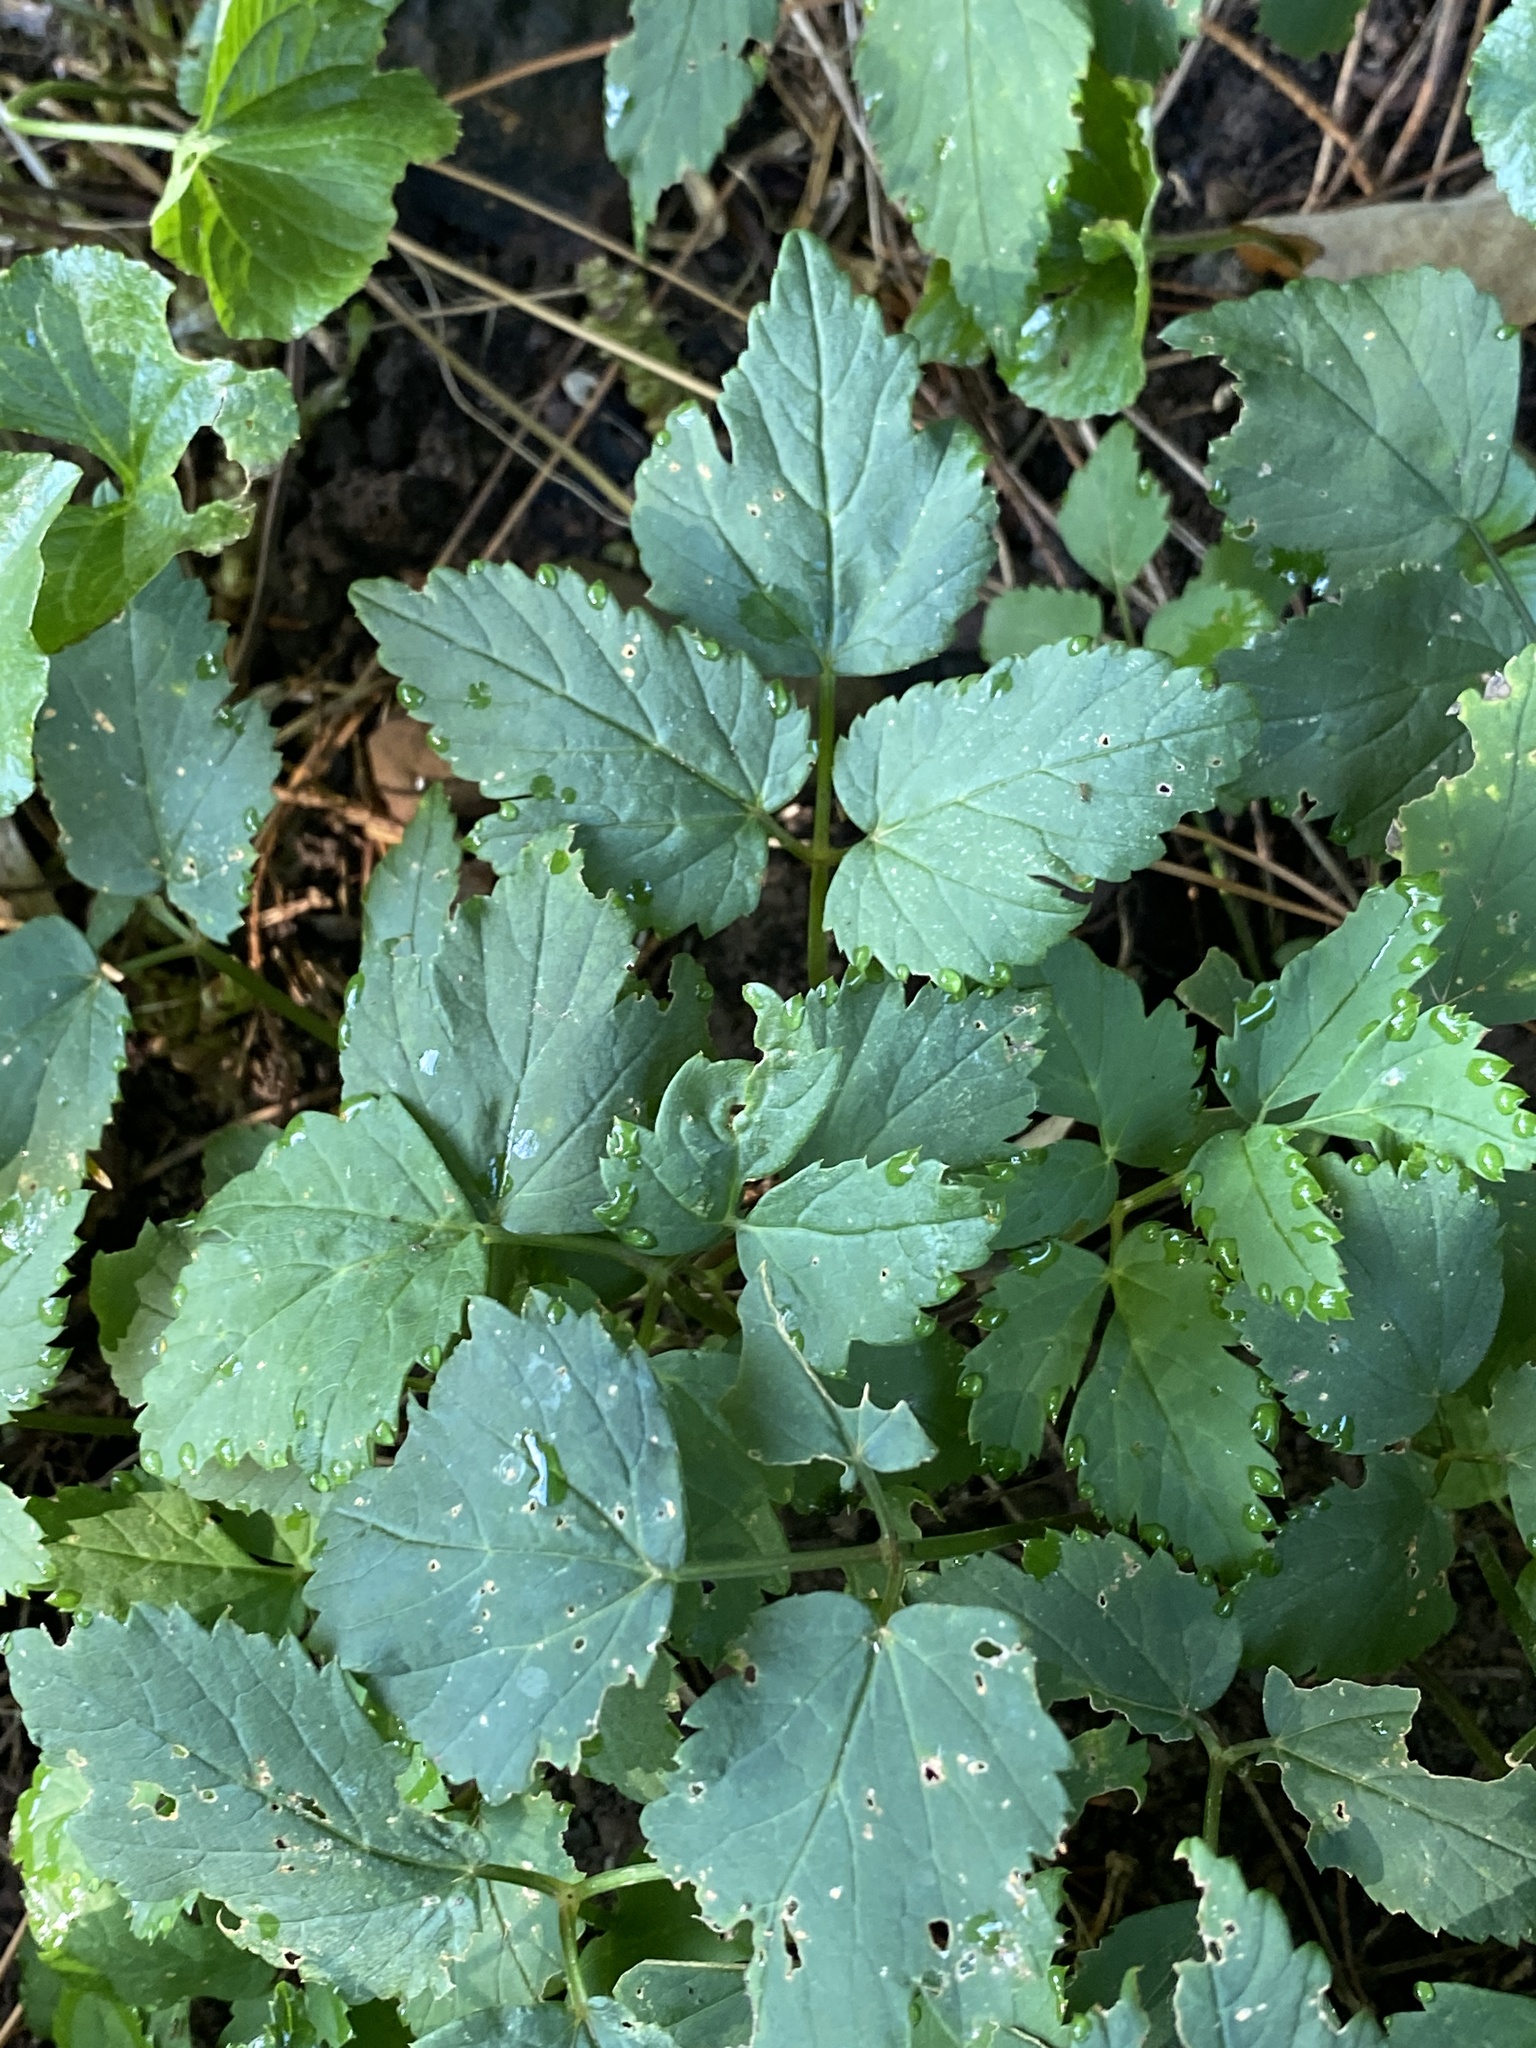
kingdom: Plantae
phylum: Tracheophyta
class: Magnoliopsida
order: Apiales
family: Apiaceae
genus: Aegopodium
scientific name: Aegopodium podagraria
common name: Ground-elder
